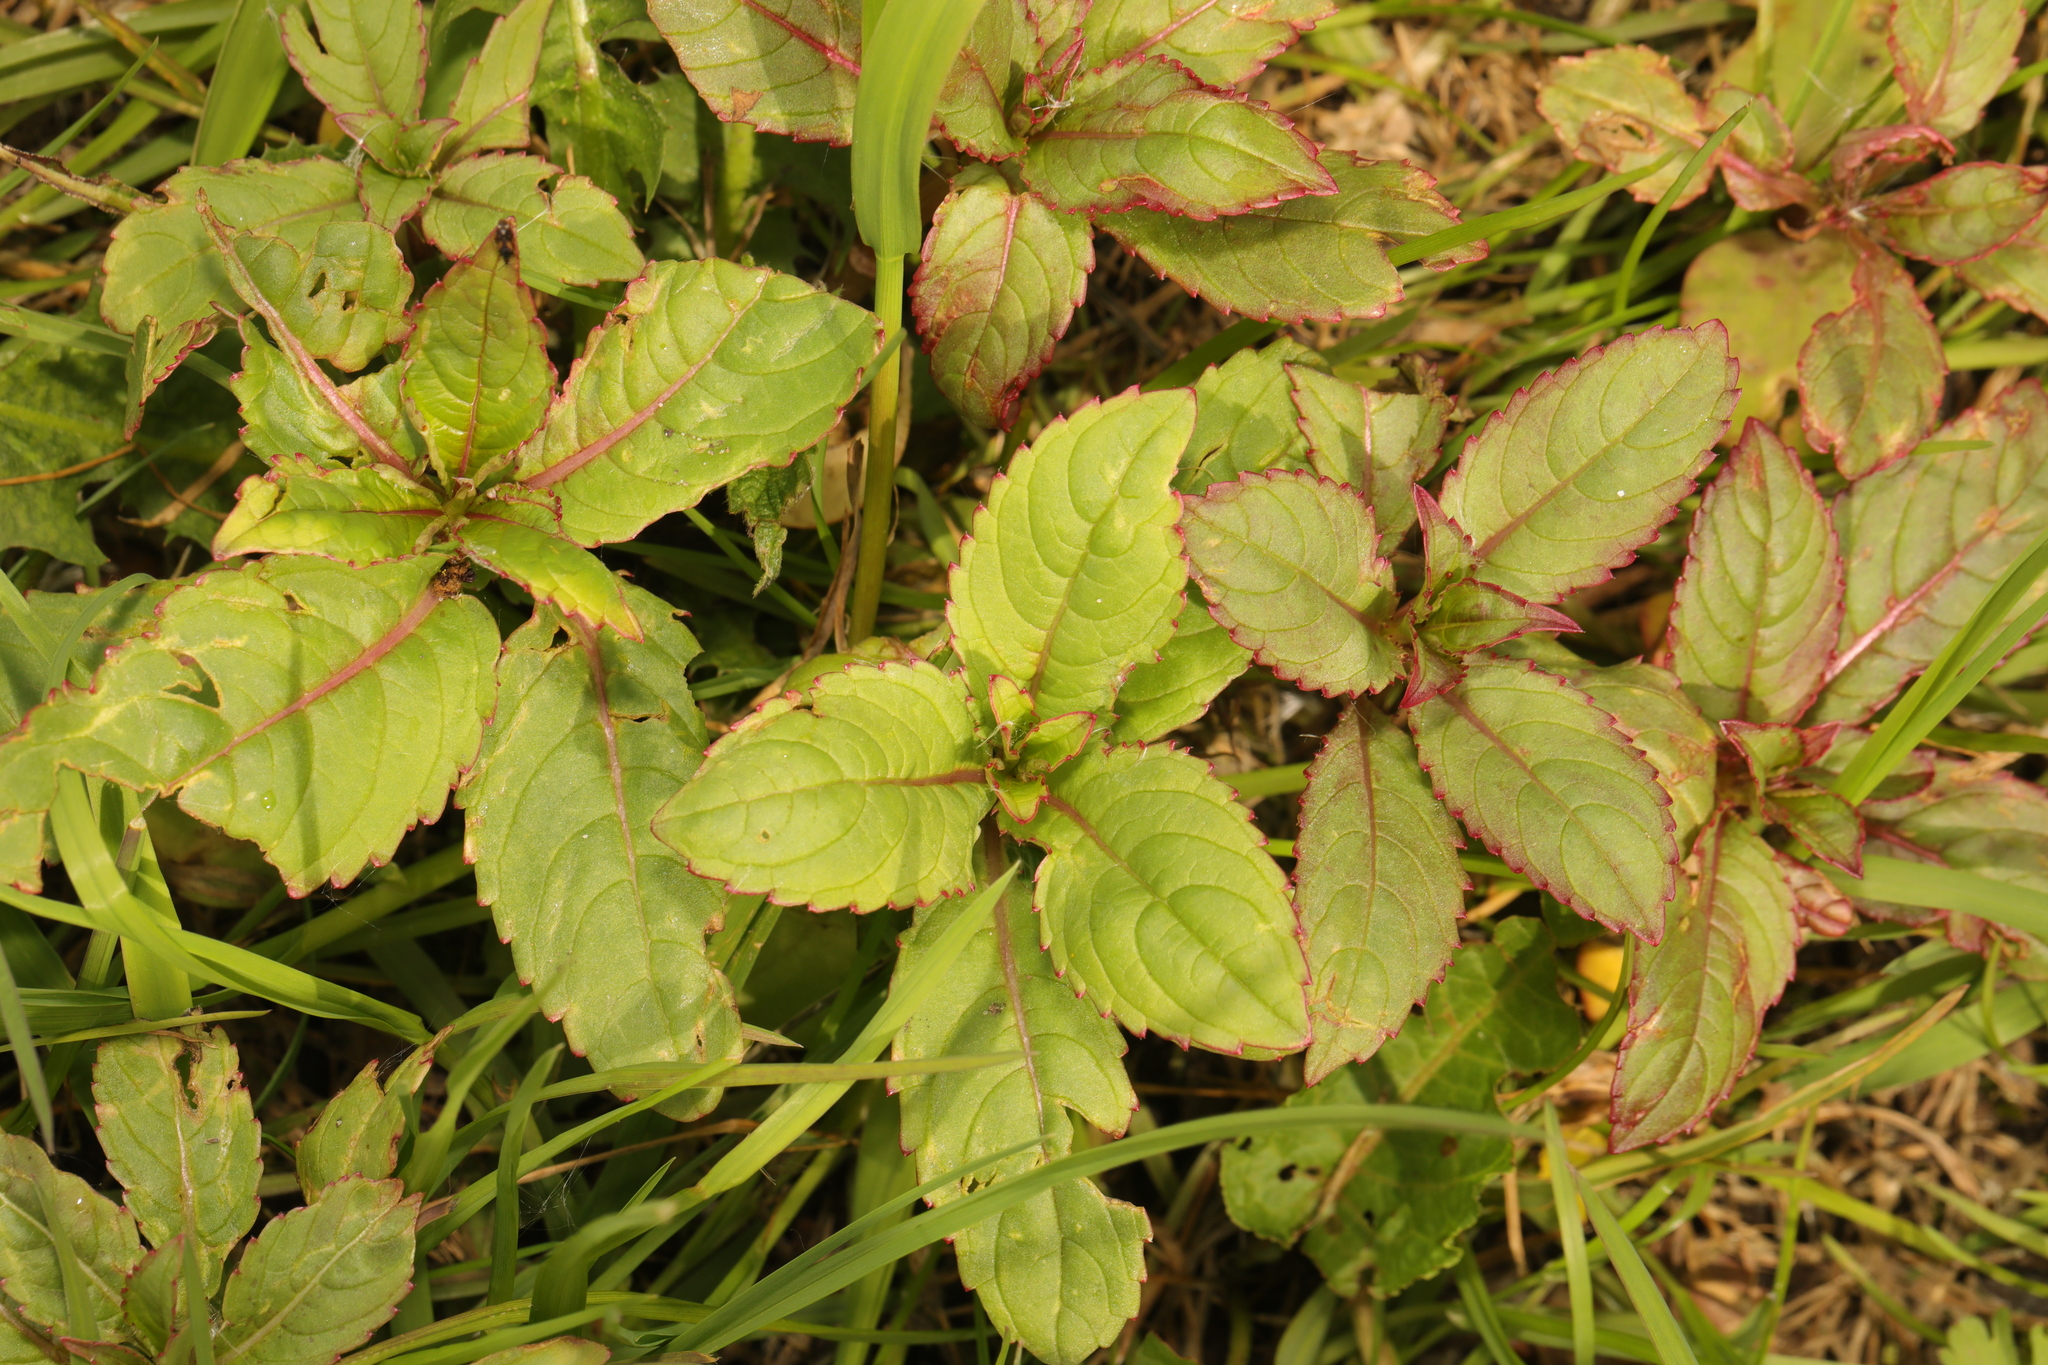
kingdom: Plantae
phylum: Tracheophyta
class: Magnoliopsida
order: Ericales
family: Balsaminaceae
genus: Impatiens
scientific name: Impatiens glandulifera
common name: Himalayan balsam
